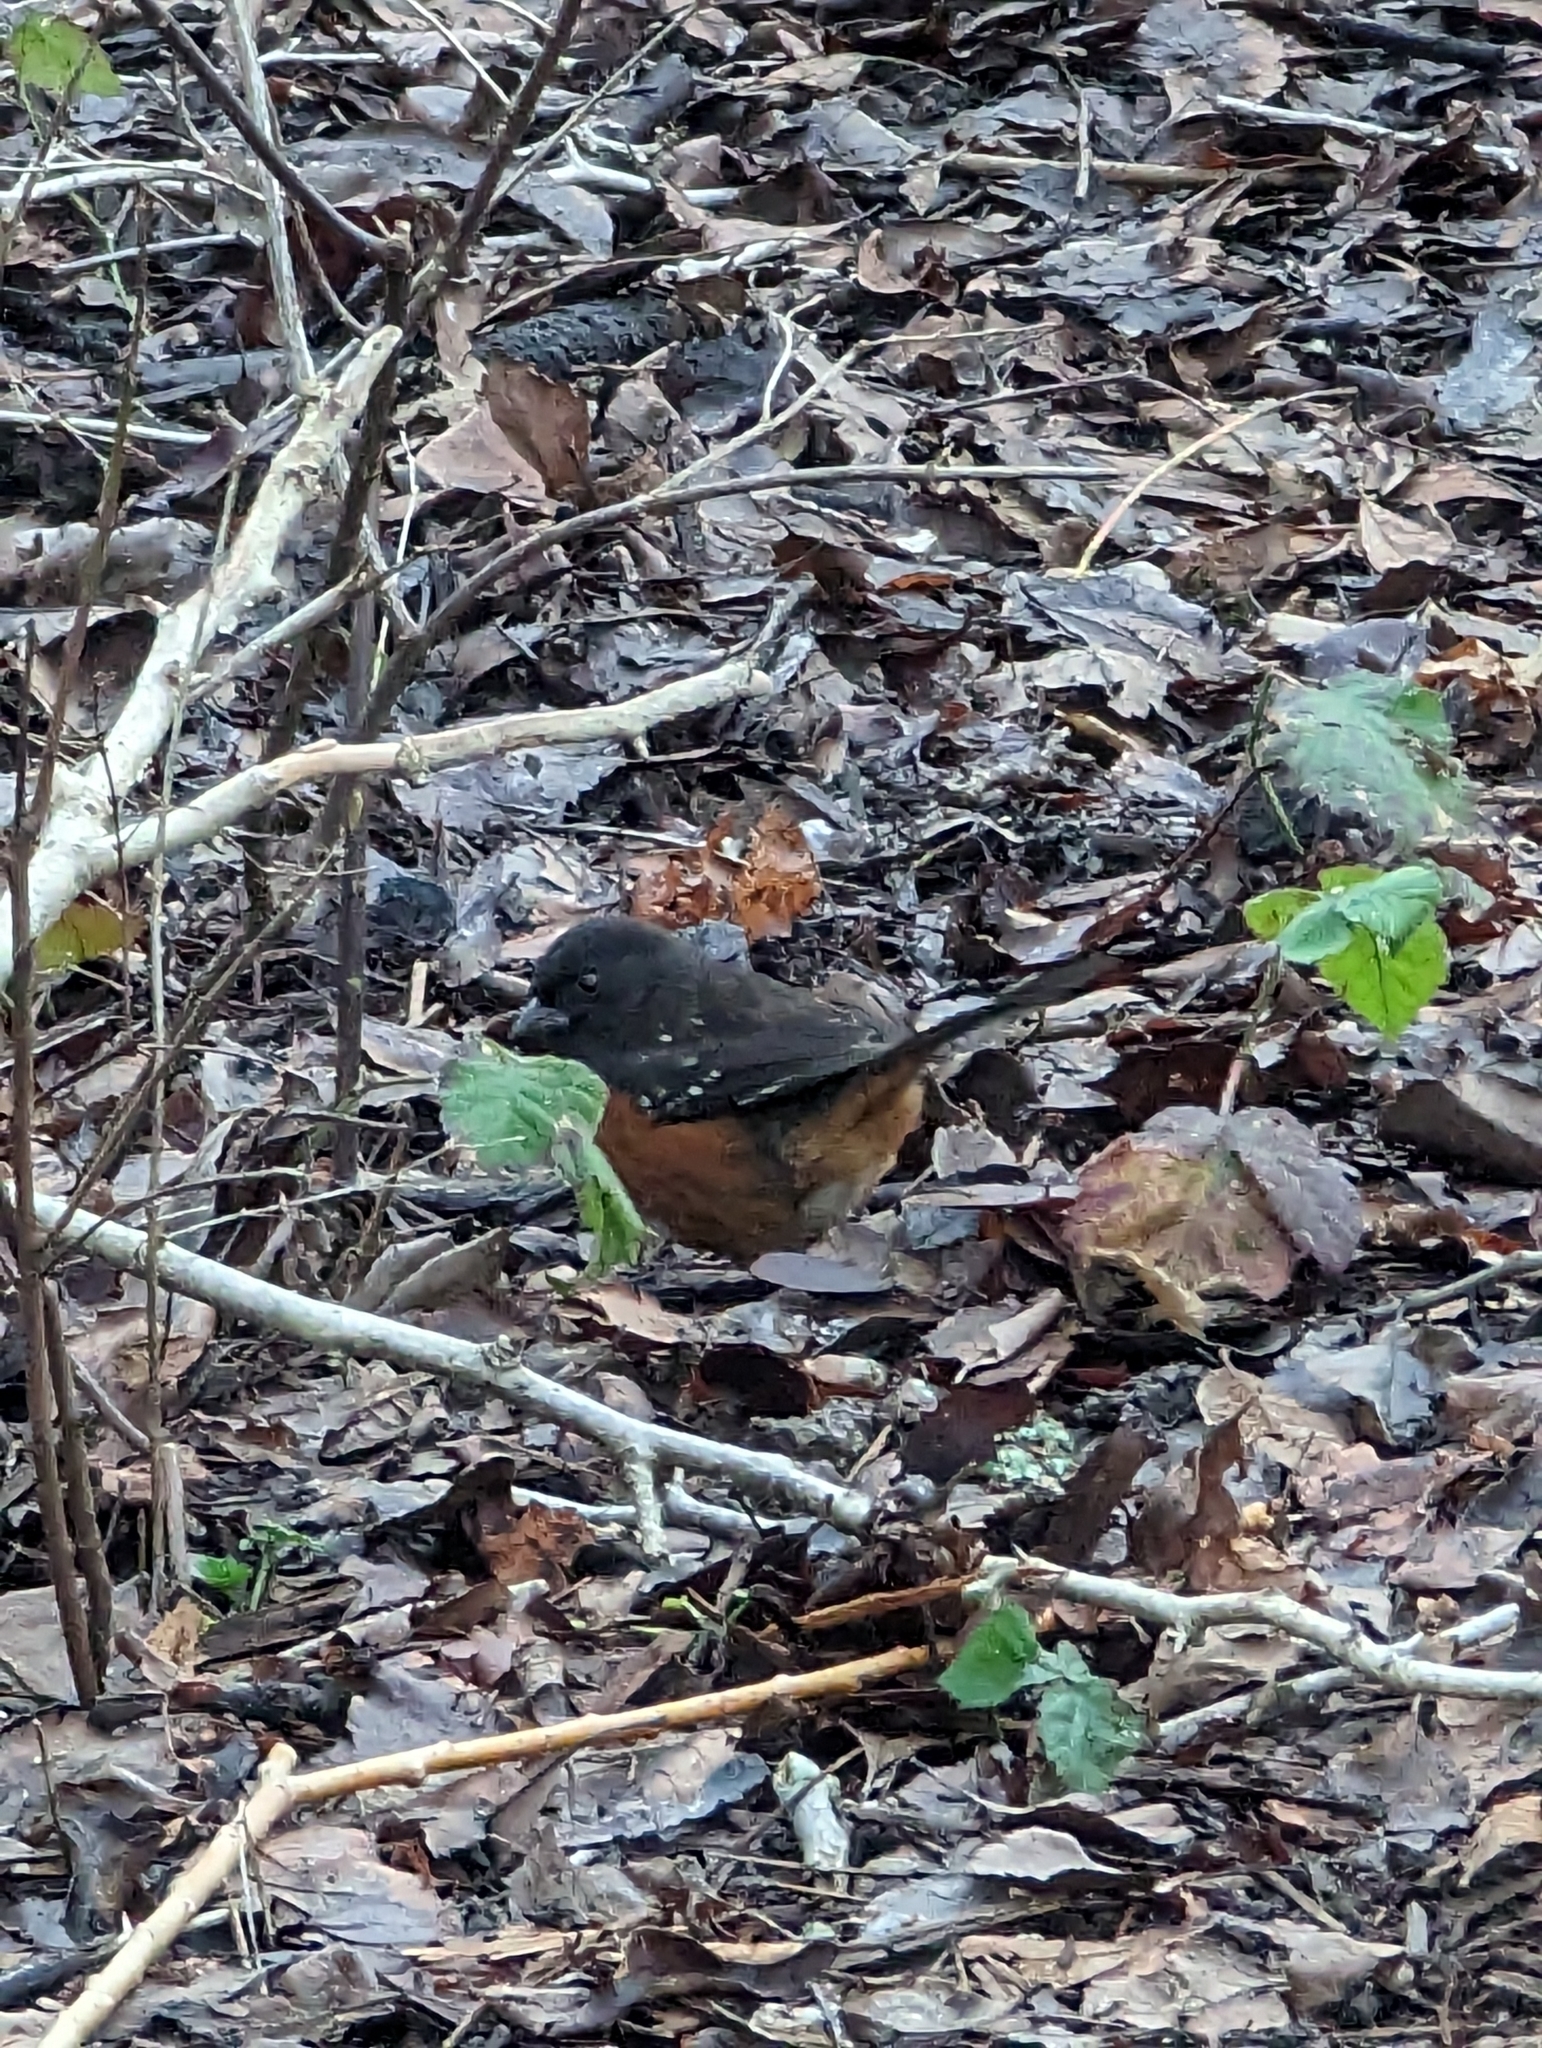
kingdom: Animalia
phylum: Chordata
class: Aves
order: Passeriformes
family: Passerellidae
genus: Pipilo
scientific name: Pipilo maculatus
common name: Spotted towhee
